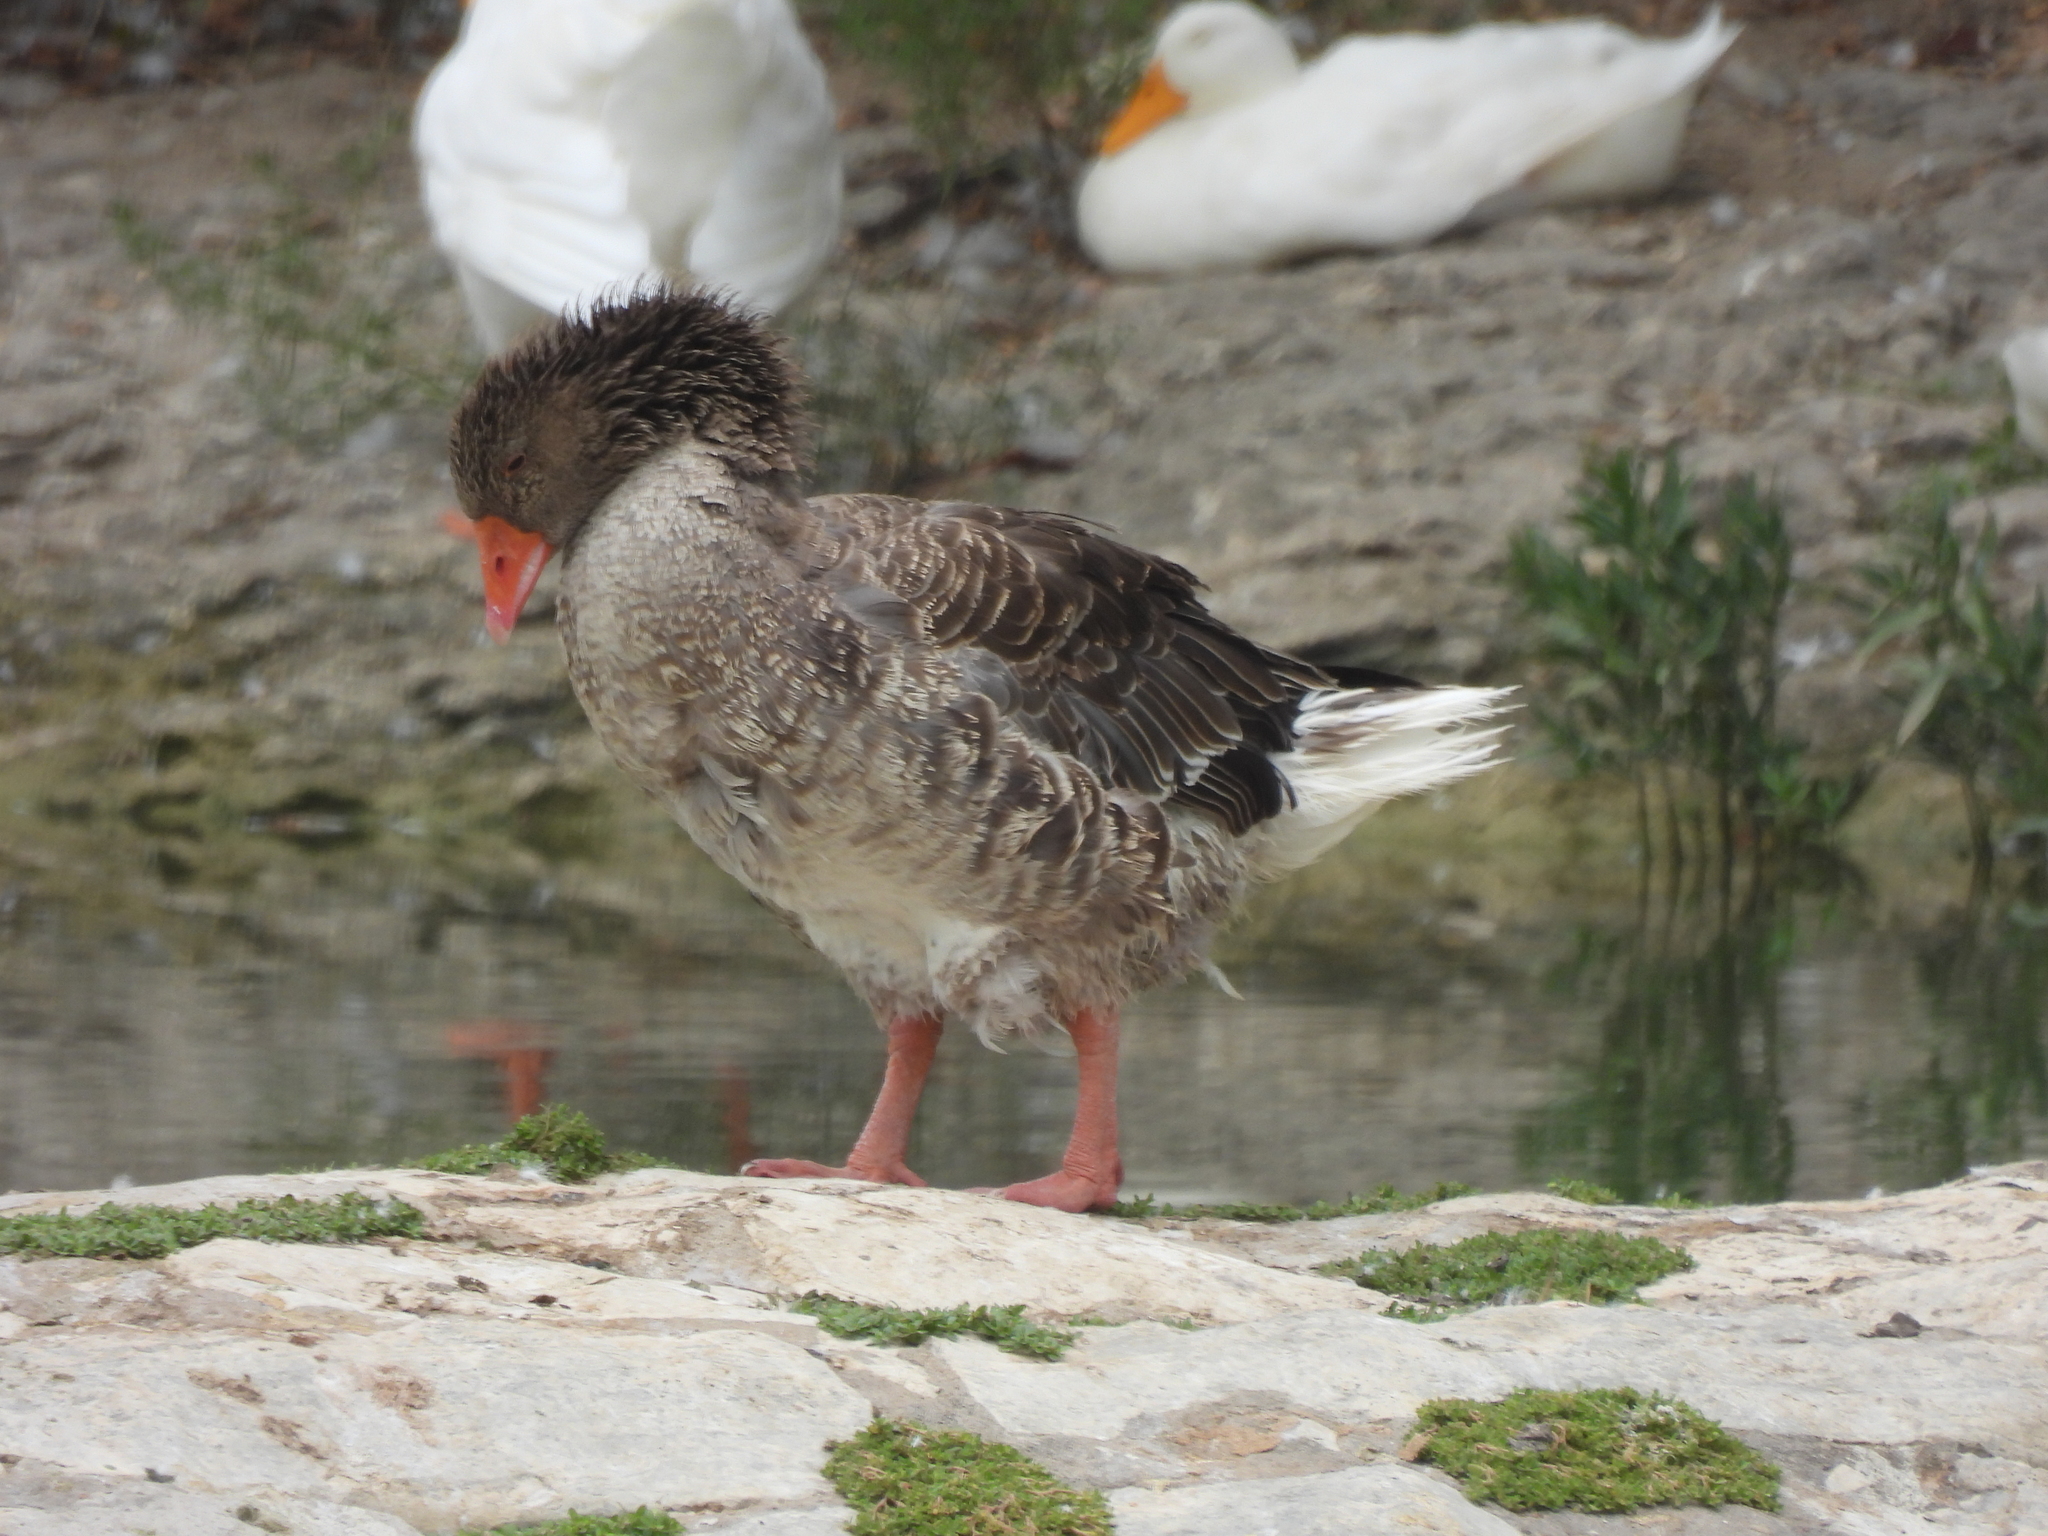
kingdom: Animalia
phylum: Chordata
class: Aves
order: Anseriformes
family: Anatidae
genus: Anser
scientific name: Anser anser
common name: Greylag goose
